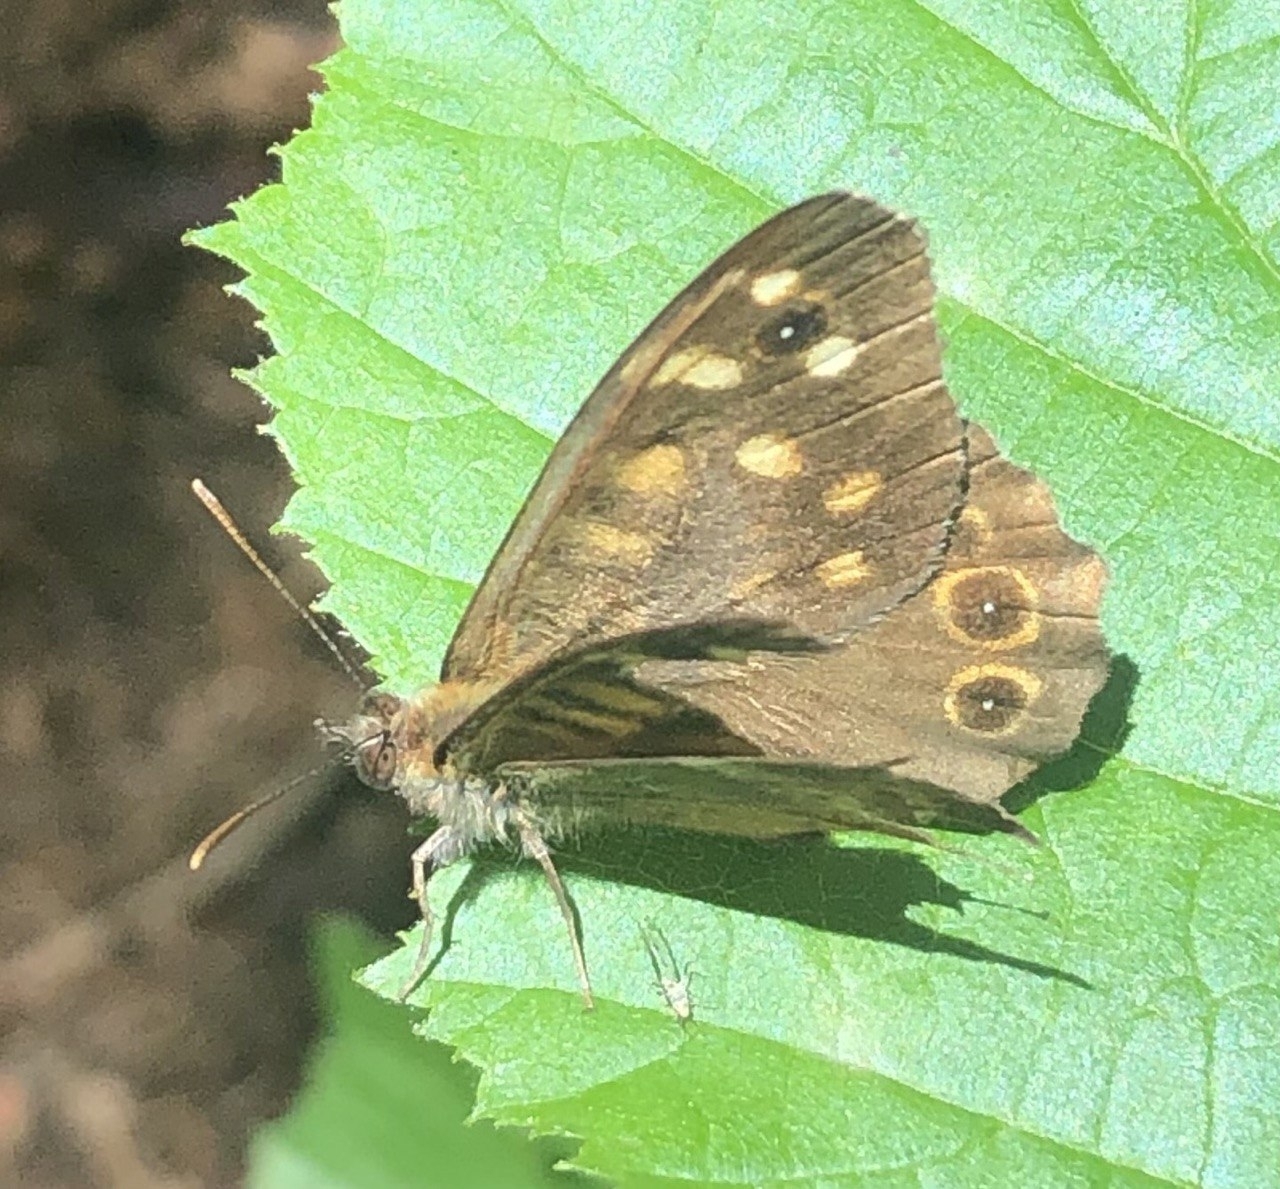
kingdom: Animalia
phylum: Arthropoda
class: Insecta
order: Lepidoptera
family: Nymphalidae
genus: Pararge
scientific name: Pararge aegeria
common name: Speckled wood
